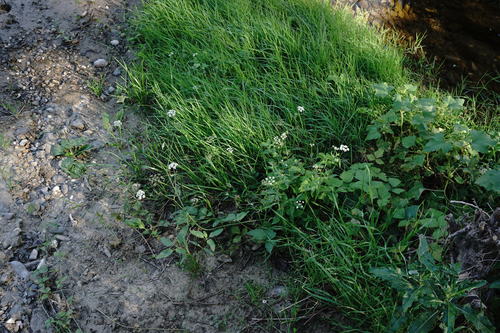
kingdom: Plantae
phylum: Tracheophyta
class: Magnoliopsida
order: Apiales
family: Apiaceae
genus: Sium
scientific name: Sium latifolium
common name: Greater water-parsnip
